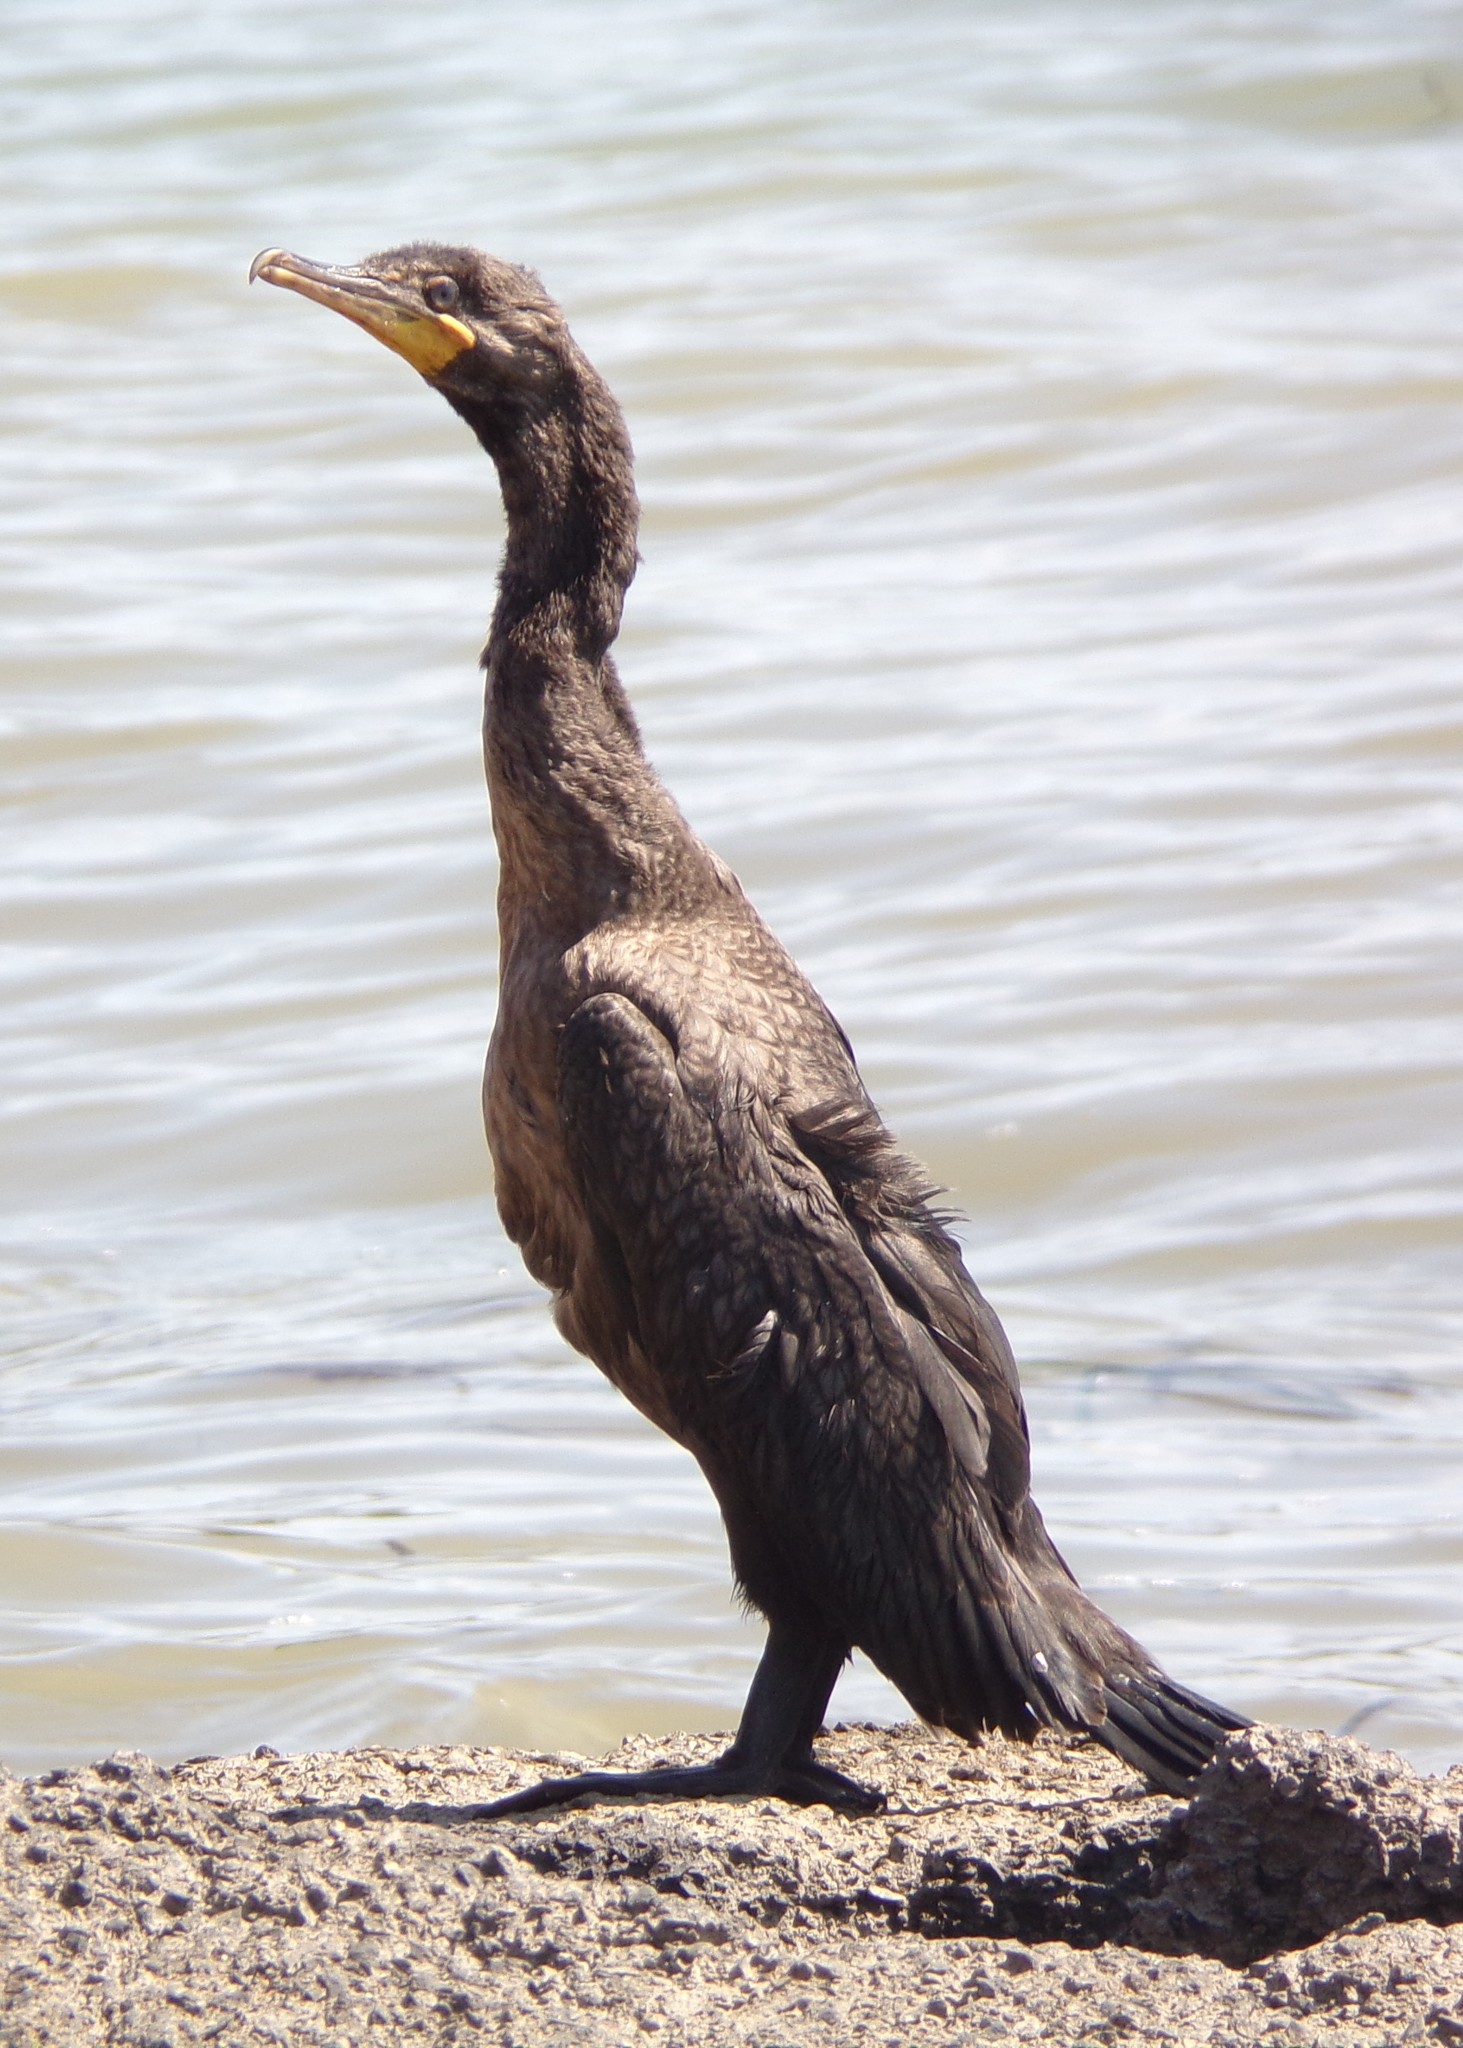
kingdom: Animalia
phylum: Chordata
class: Aves
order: Suliformes
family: Phalacrocoracidae
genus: Phalacrocorax
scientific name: Phalacrocorax auritus
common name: Double-crested cormorant
